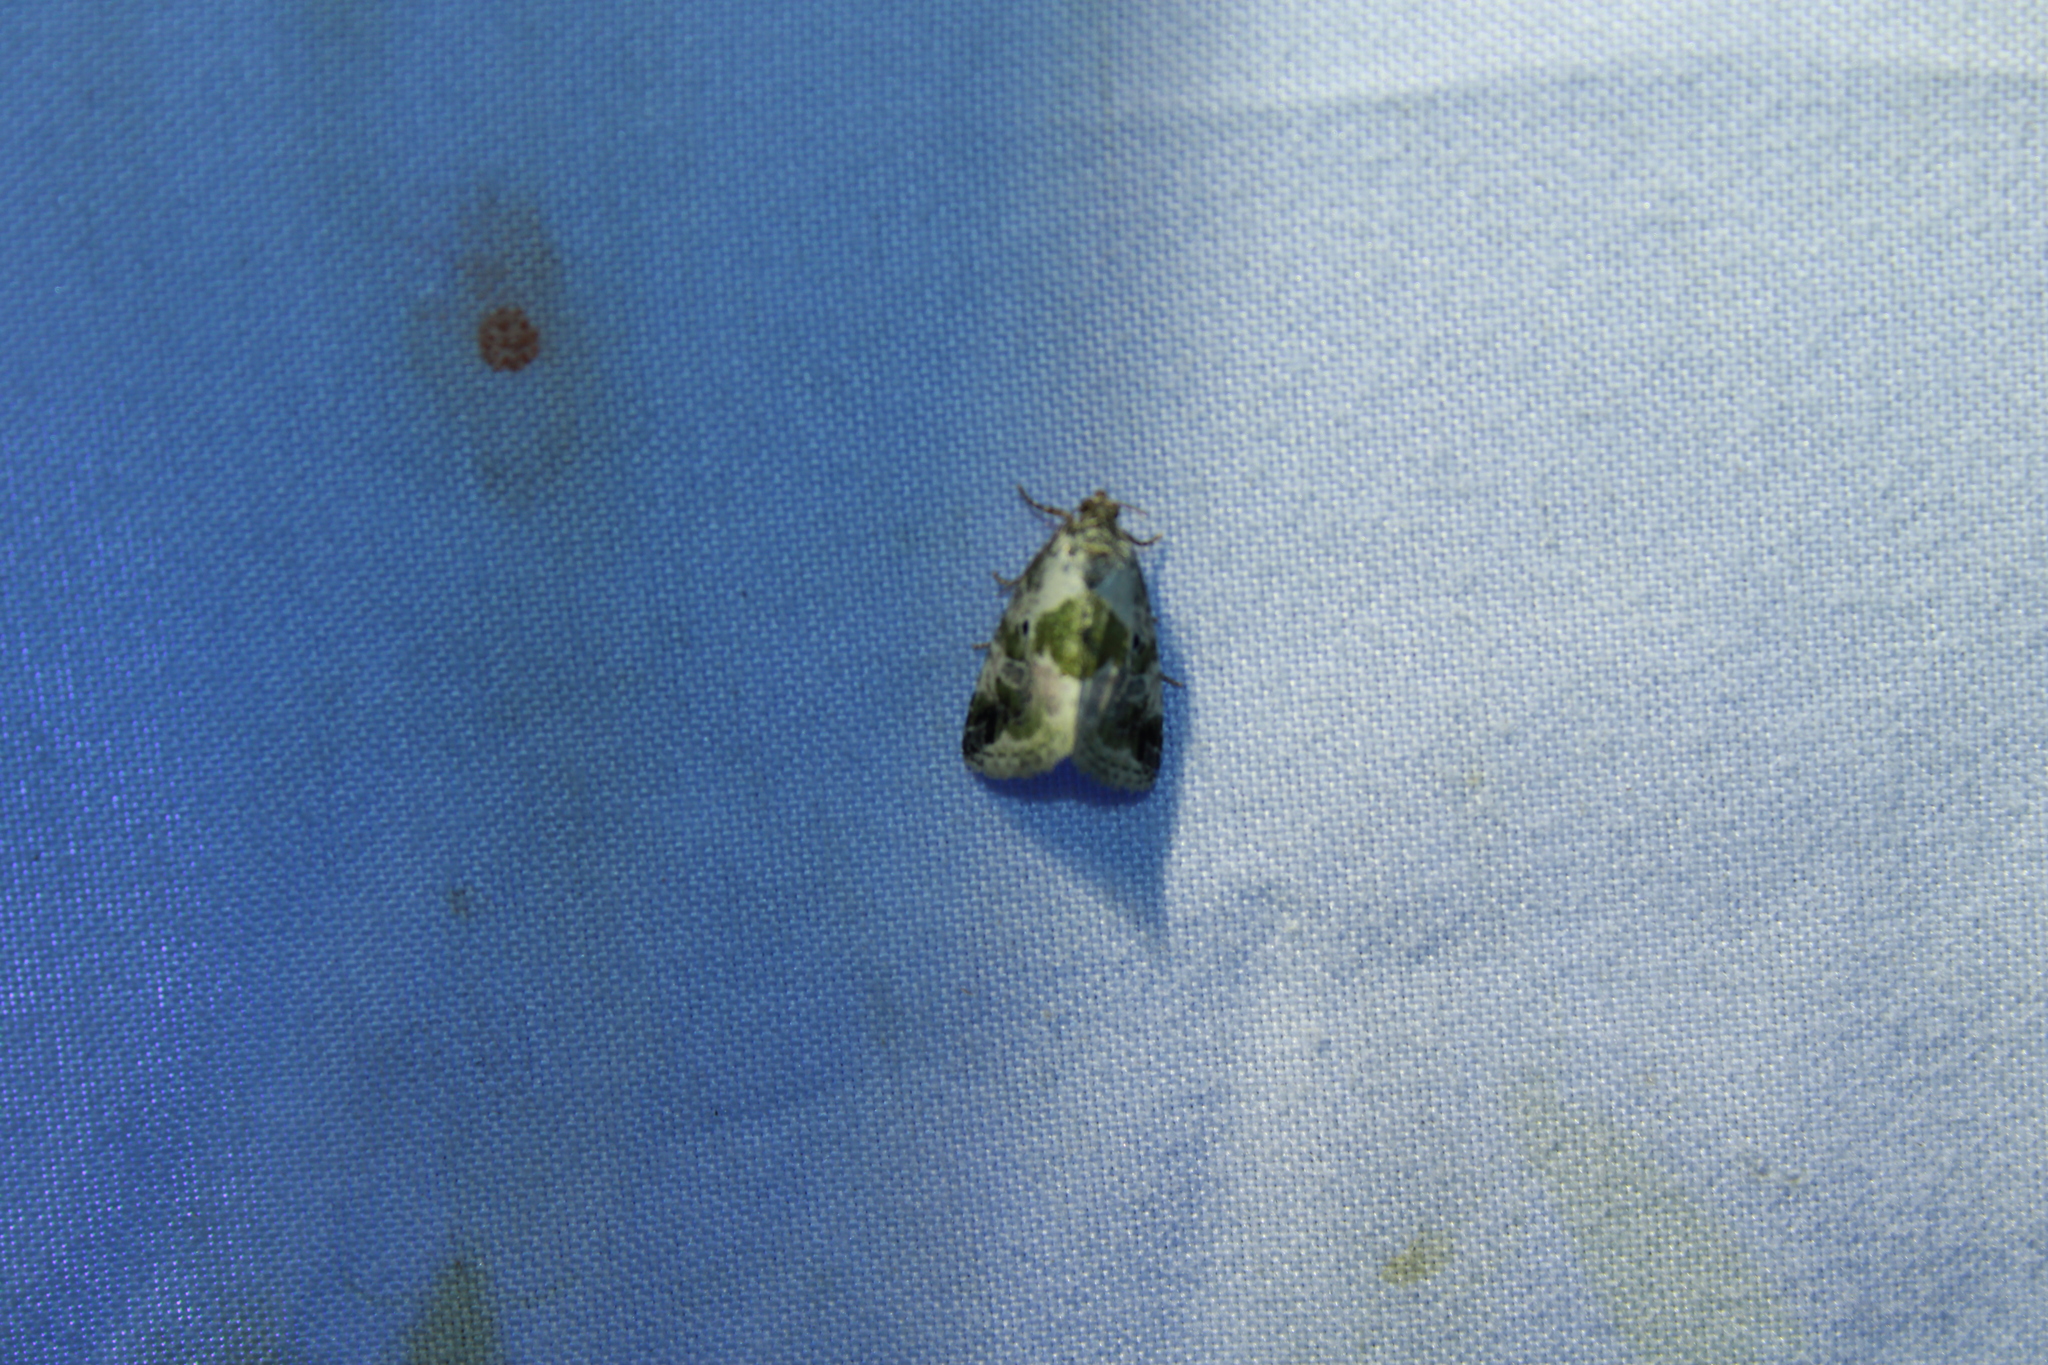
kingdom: Animalia
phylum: Arthropoda
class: Insecta
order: Lepidoptera
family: Noctuidae
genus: Maliattha
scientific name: Maliattha synochitis
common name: Black-dotted glyph
